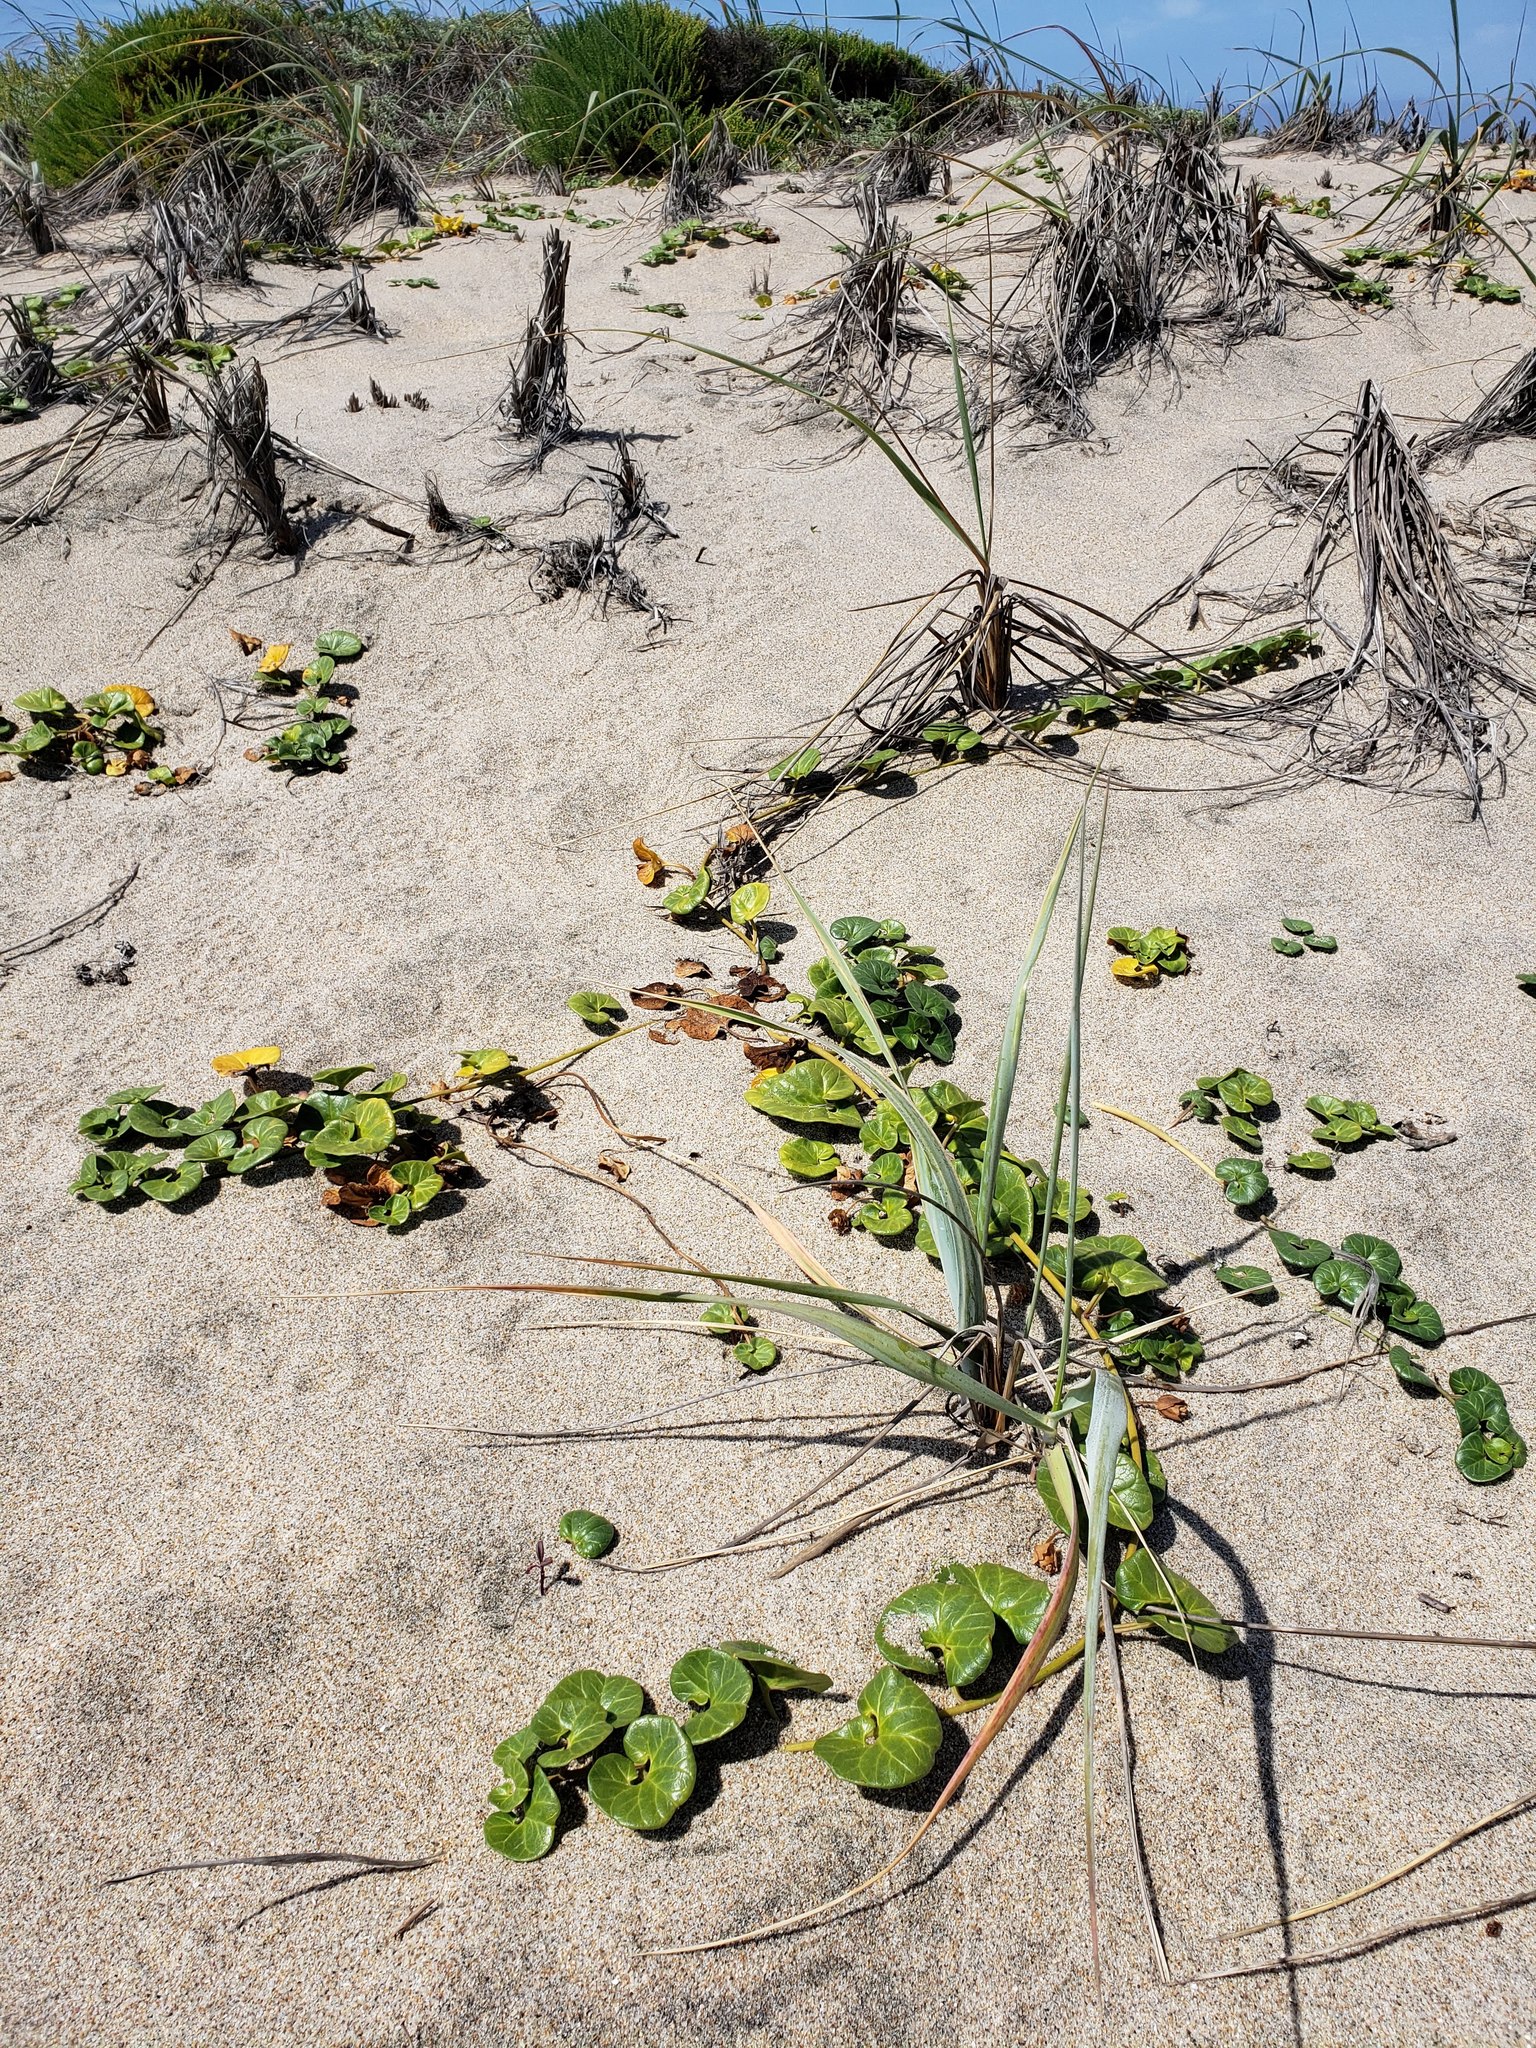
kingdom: Plantae
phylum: Tracheophyta
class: Magnoliopsida
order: Solanales
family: Convolvulaceae
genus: Calystegia
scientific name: Calystegia soldanella
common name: Sea bindweed
